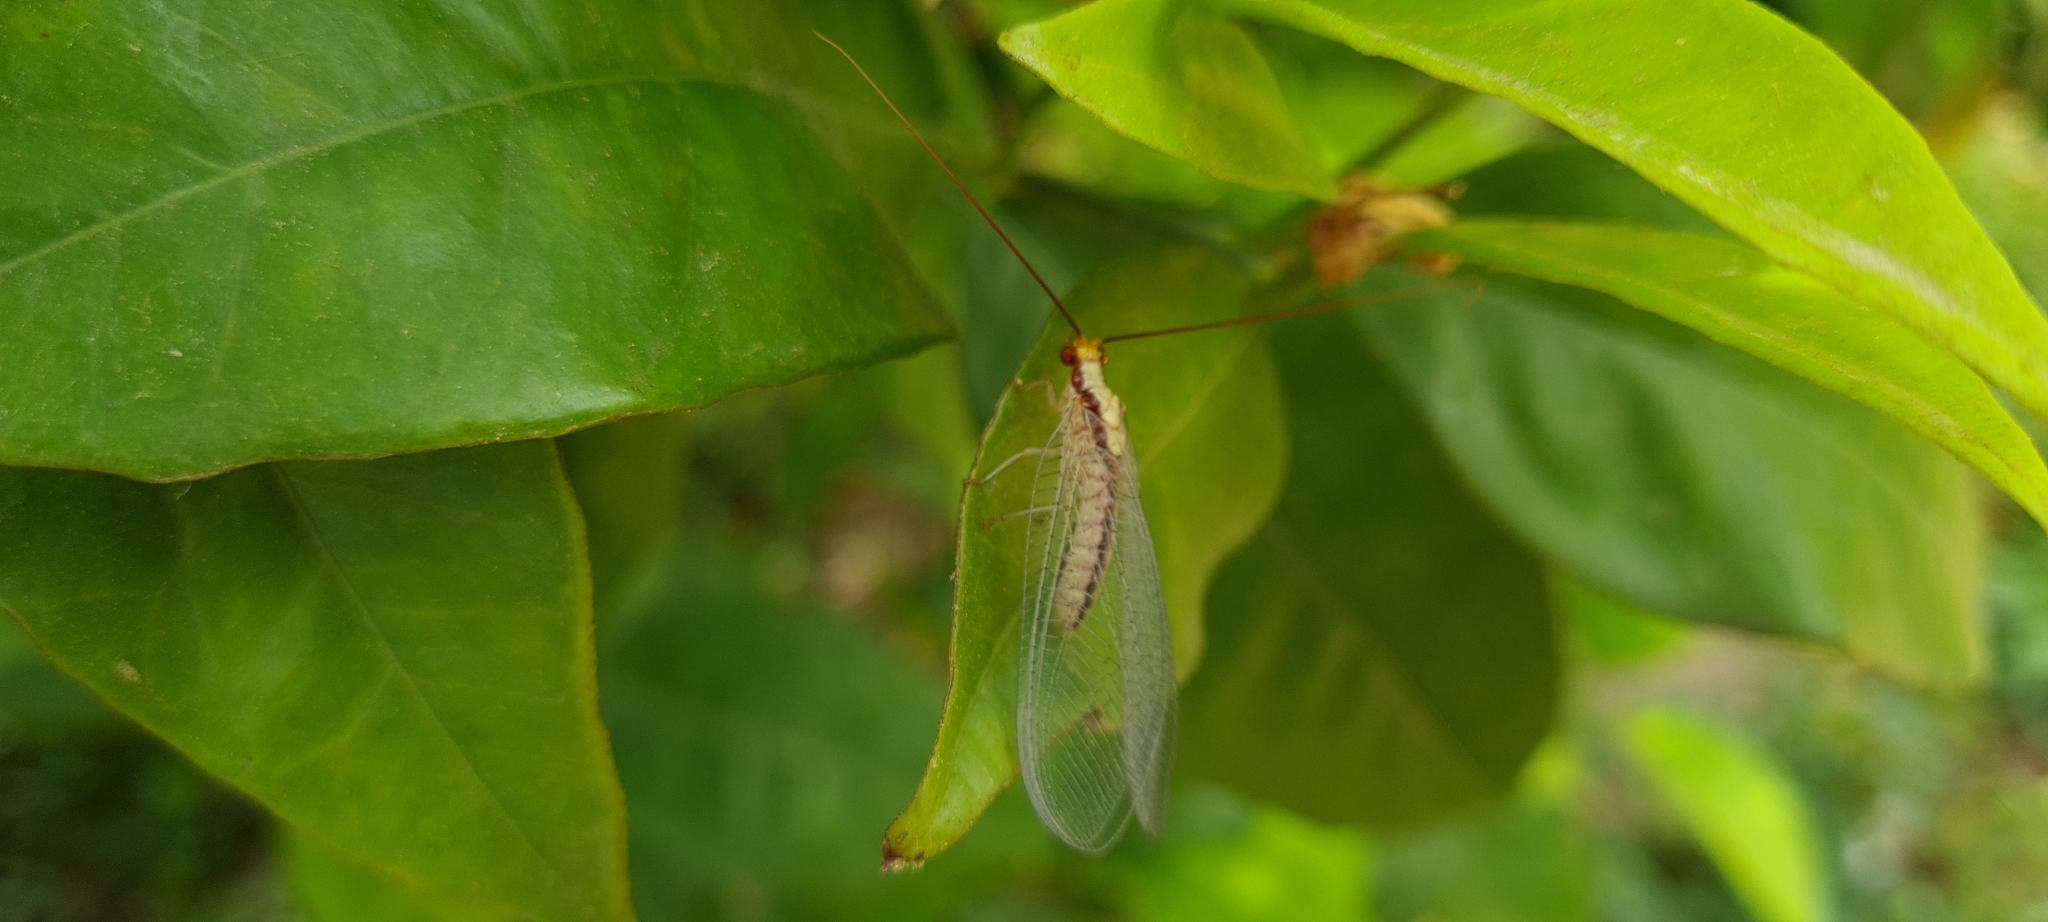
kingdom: Animalia
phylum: Arthropoda
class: Insecta
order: Neuroptera
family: Chrysopidae
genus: Italochrysa
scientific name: Italochrysa italica
